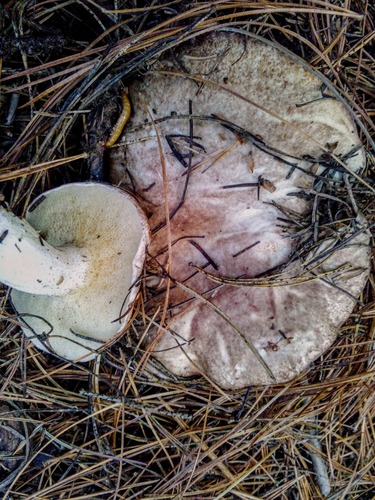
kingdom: Fungi
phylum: Basidiomycota
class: Agaricomycetes
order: Boletales
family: Suillaceae
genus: Suillus
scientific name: Suillus placidus
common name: Slippery white bolete
